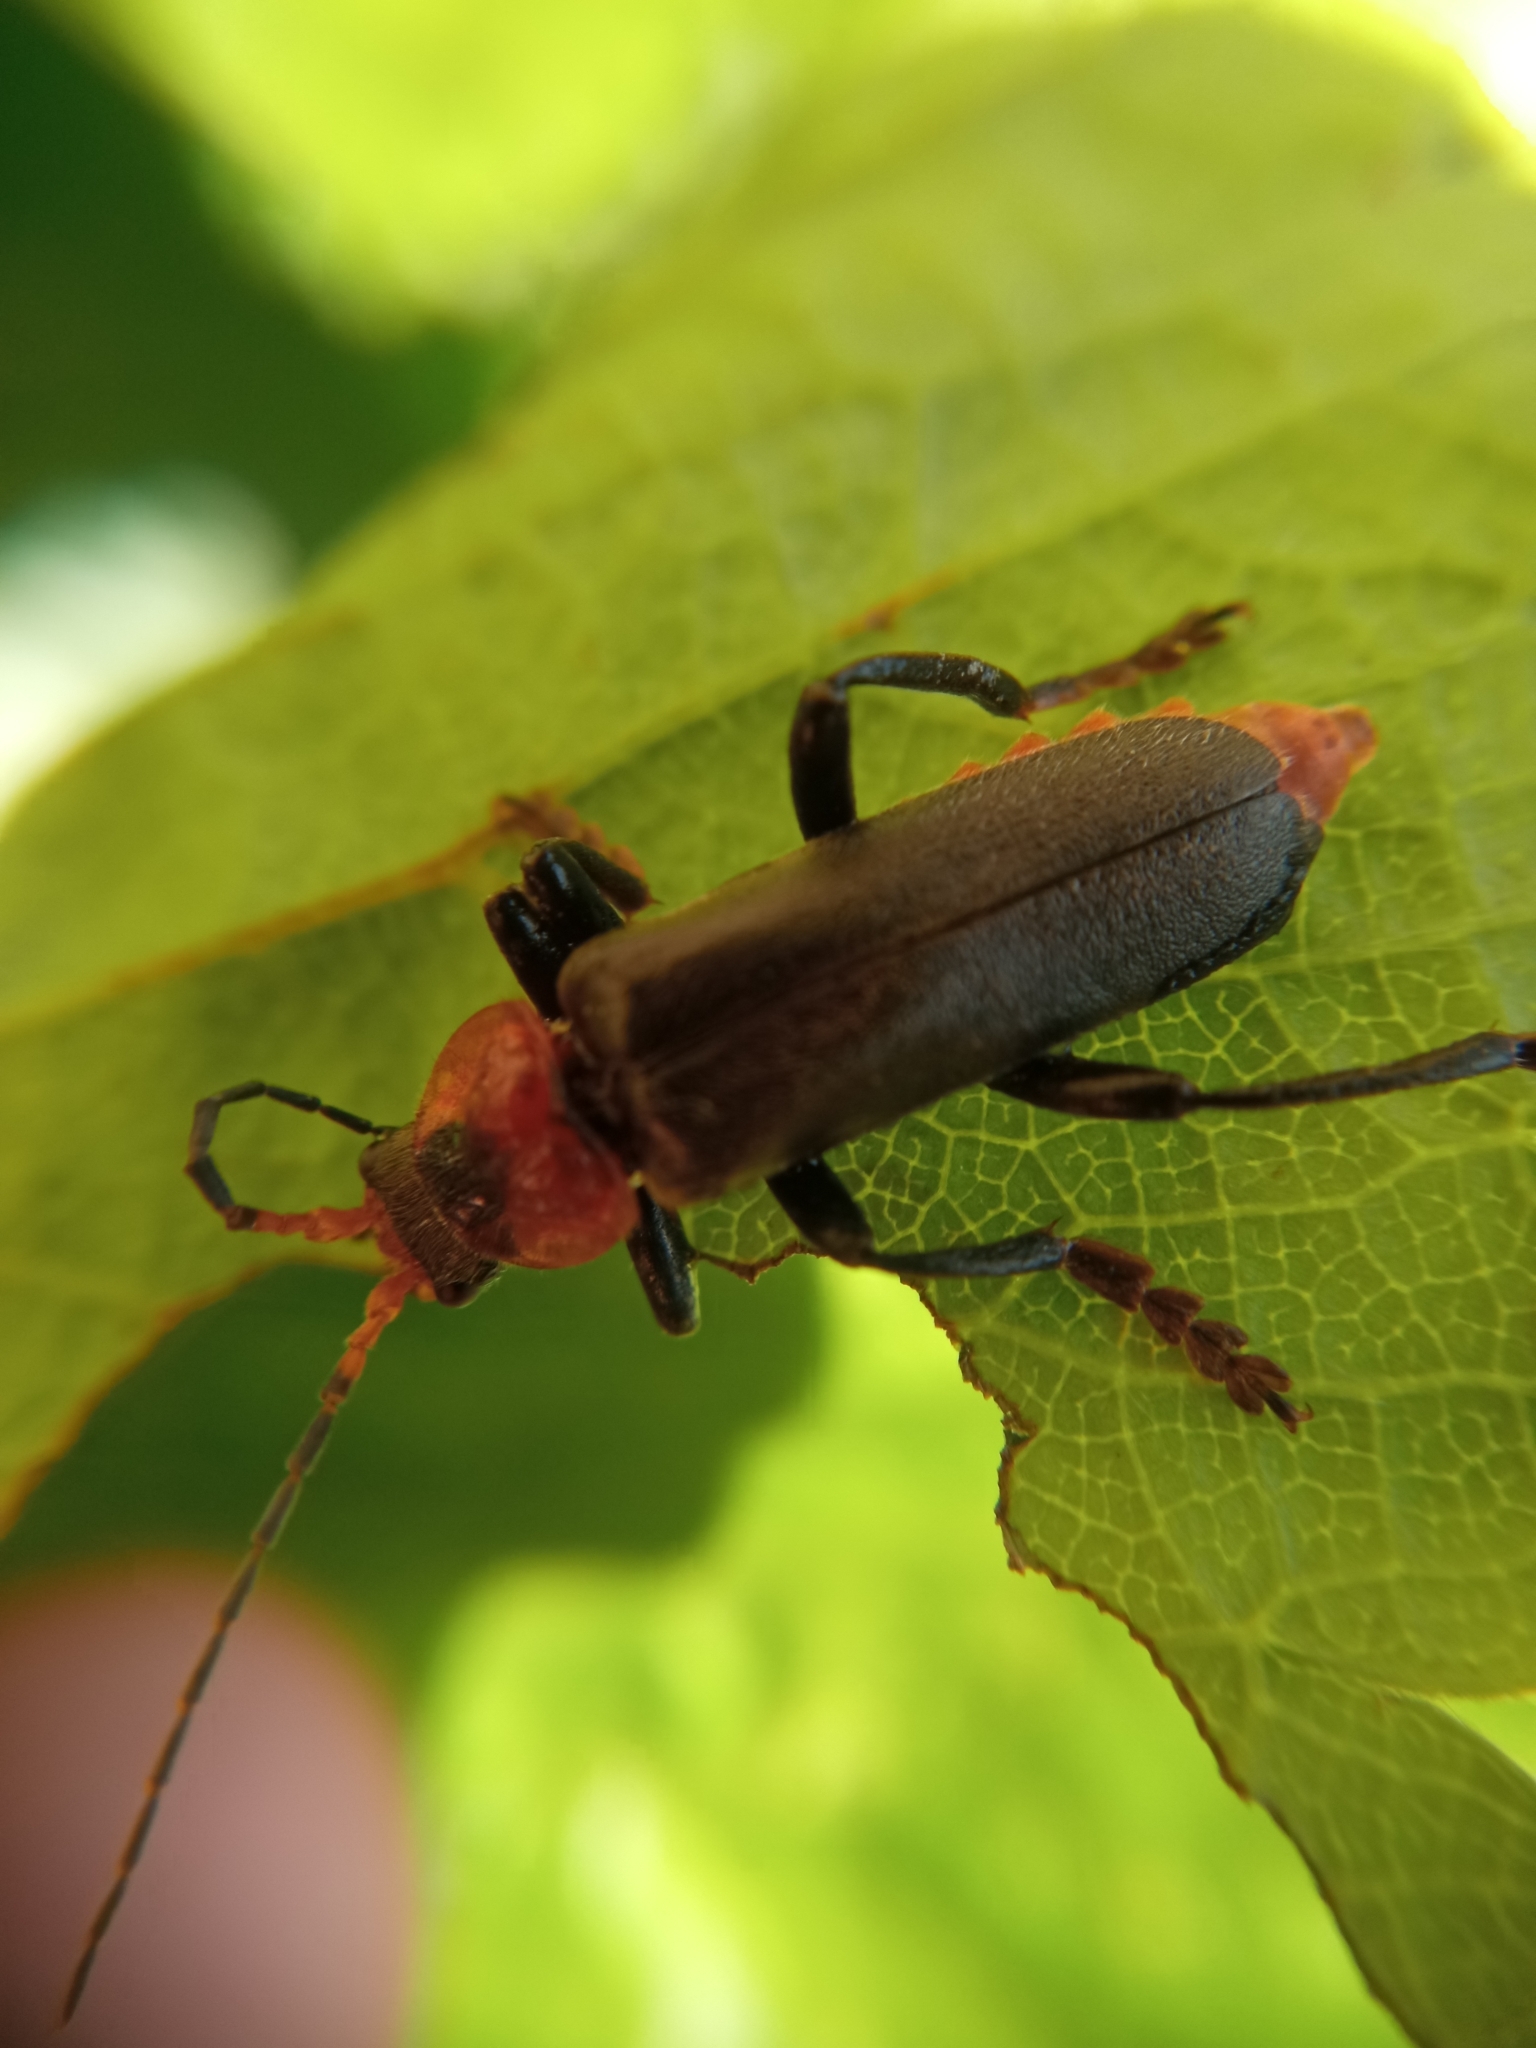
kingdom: Animalia
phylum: Arthropoda
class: Insecta
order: Coleoptera
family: Cantharidae
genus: Cantharis
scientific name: Cantharis fusca
